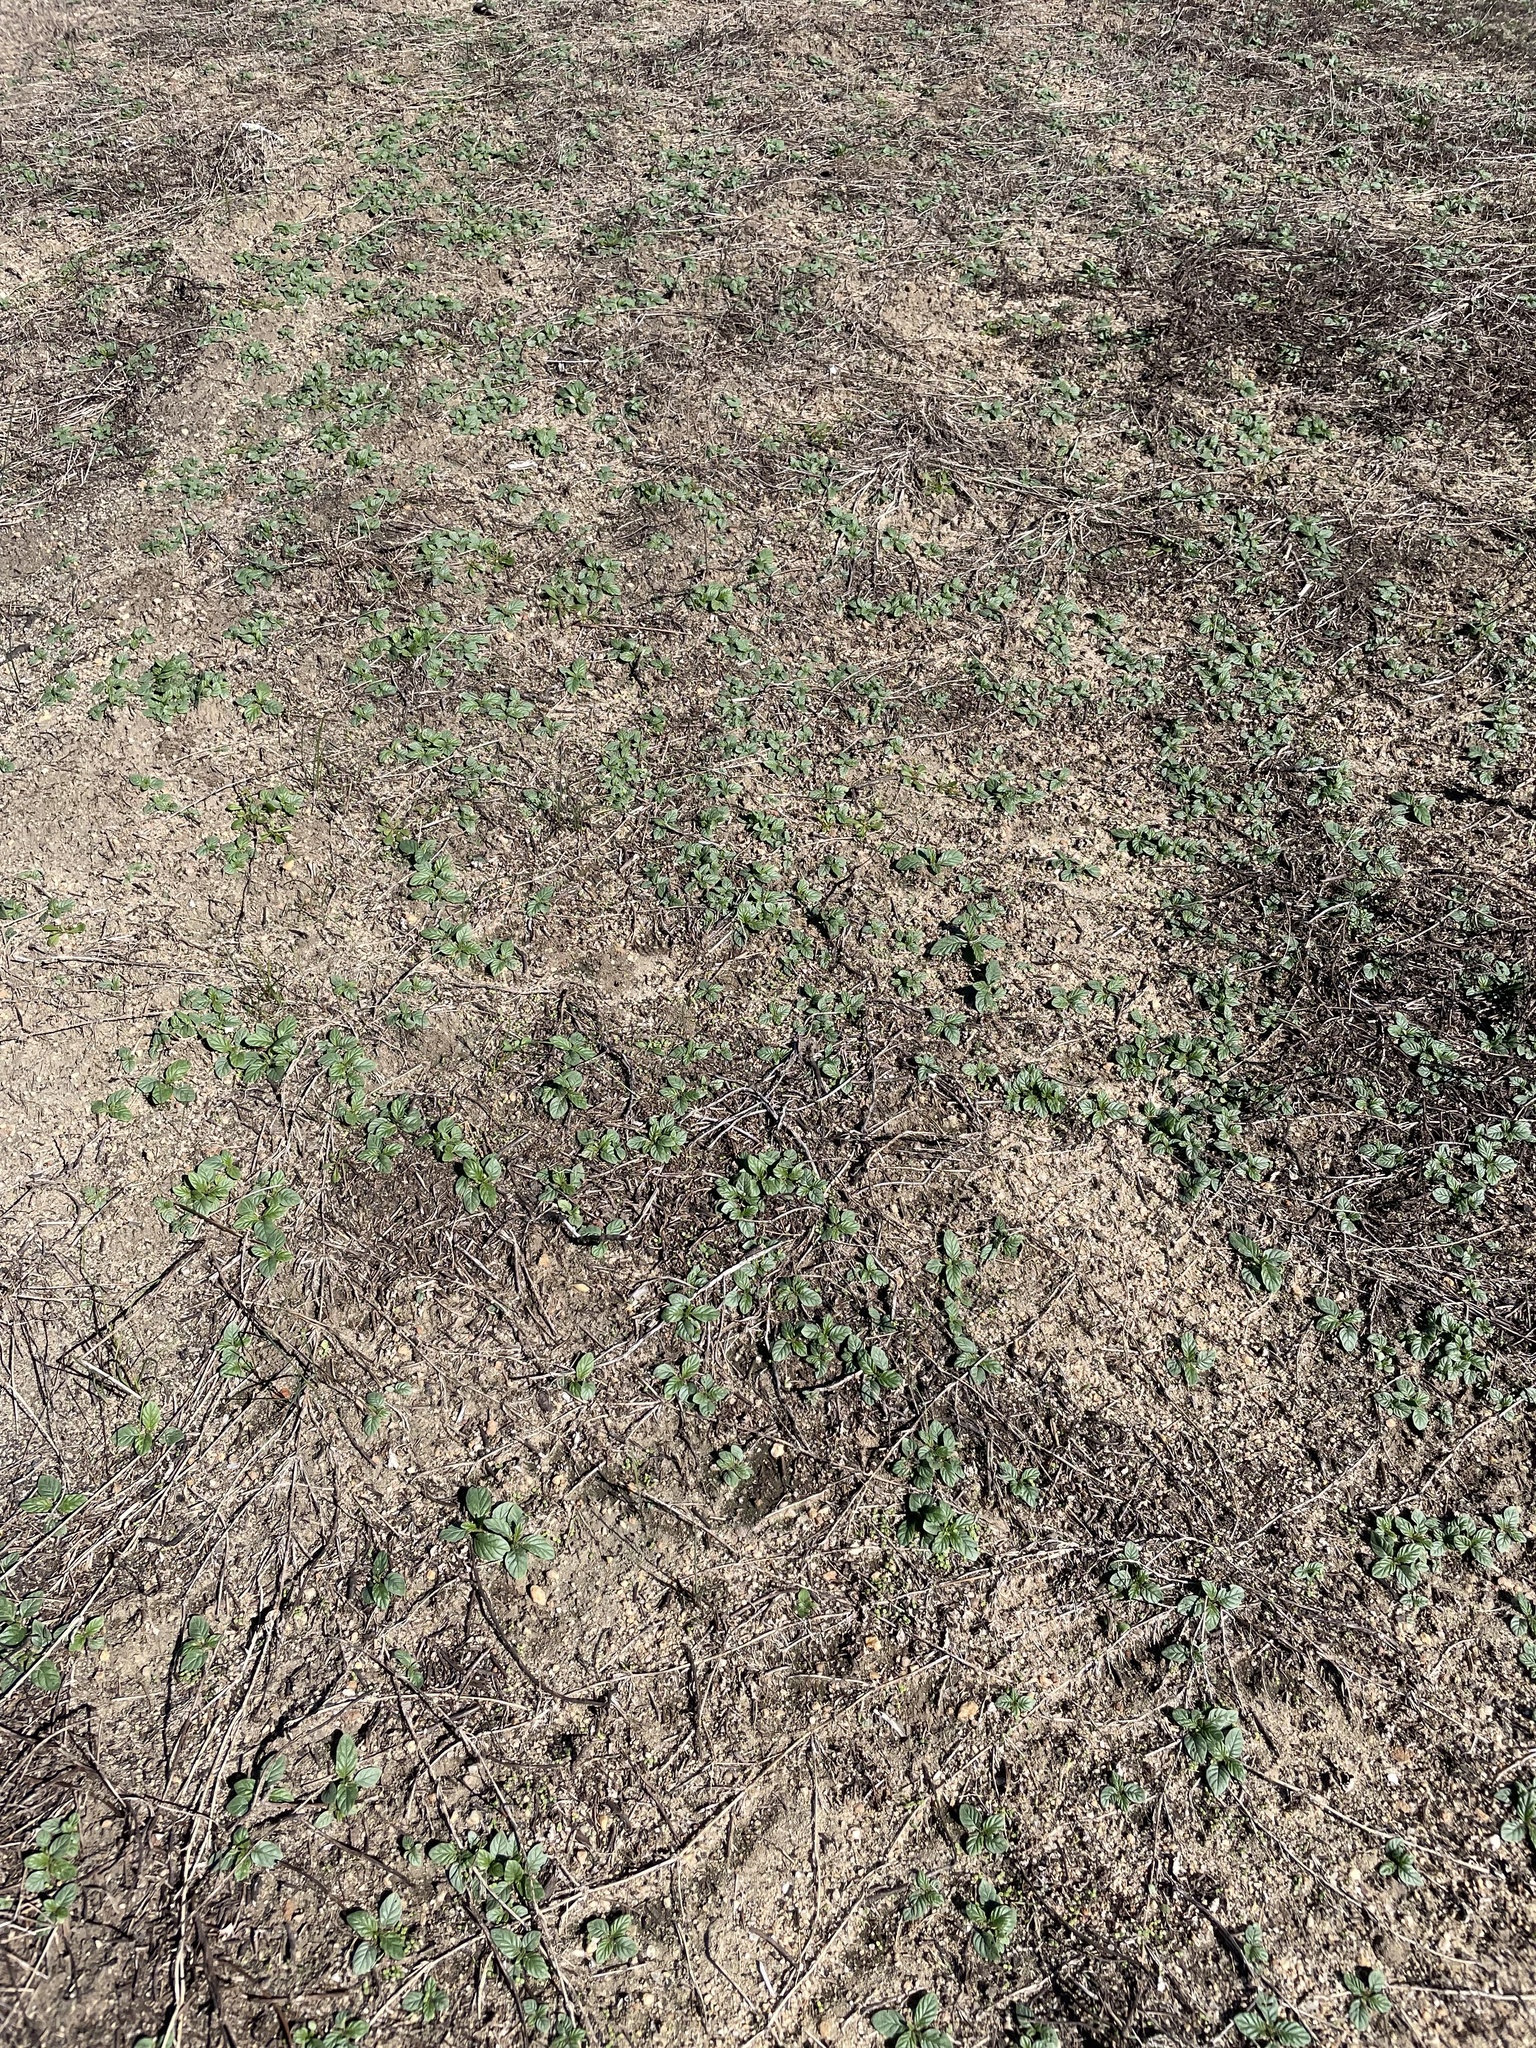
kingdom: Plantae
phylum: Tracheophyta
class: Magnoliopsida
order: Boraginales
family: Heliotropiaceae
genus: Heliotropium
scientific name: Heliotropium amplexicaule
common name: Clasping heliotrope
